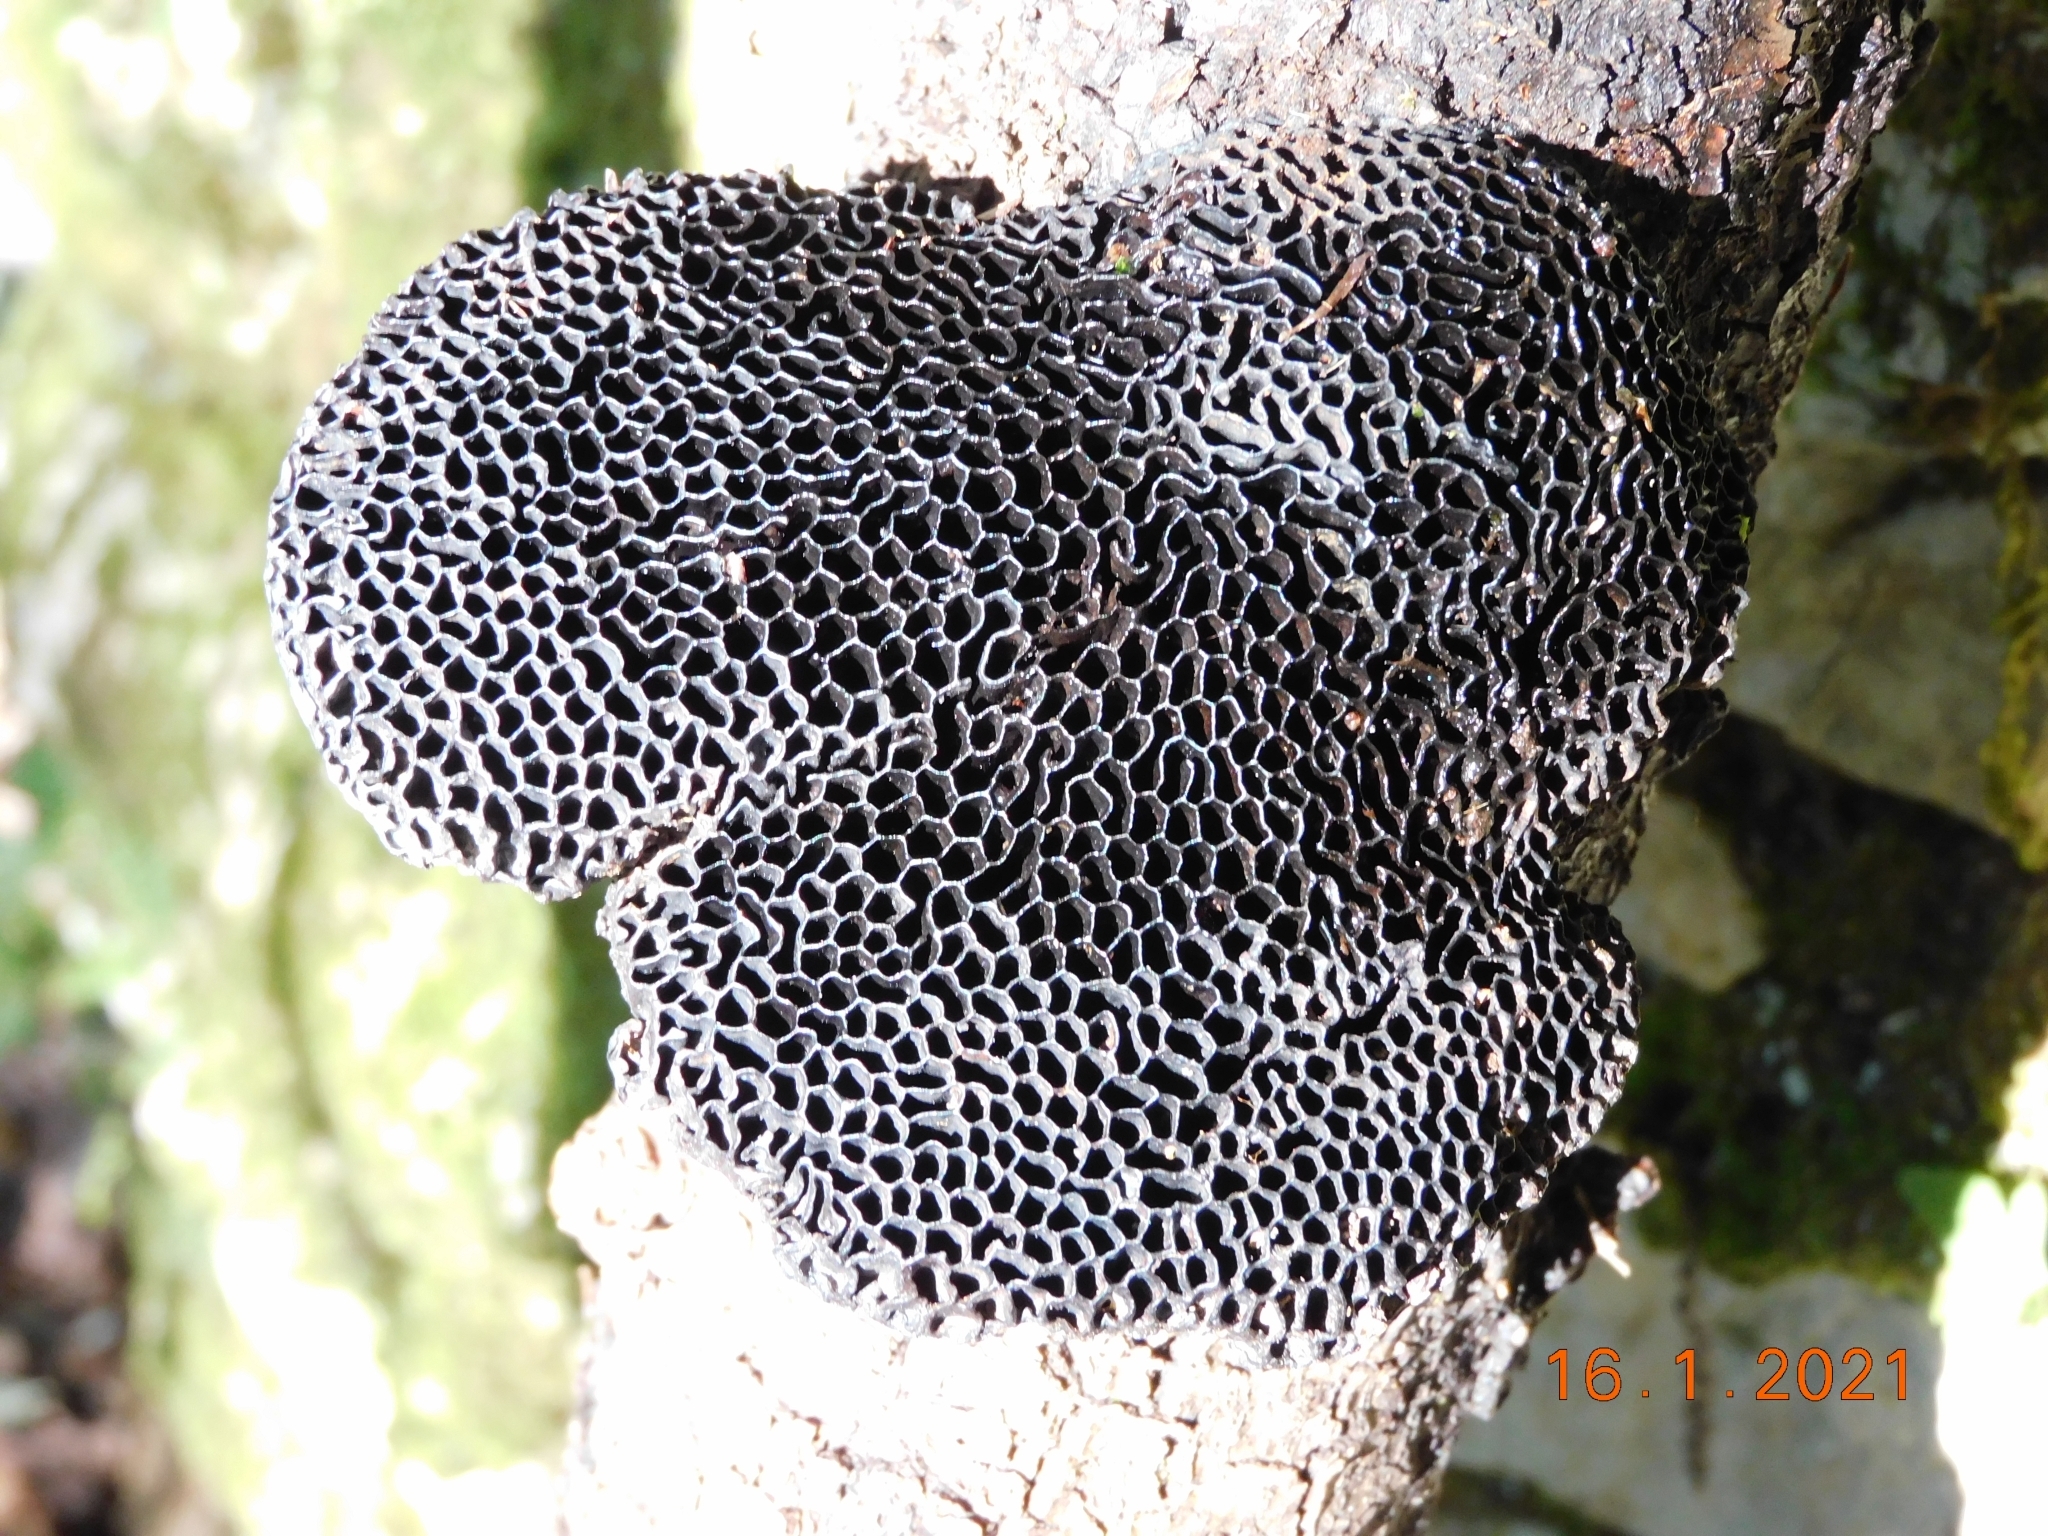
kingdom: Fungi
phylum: Basidiomycota
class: Agaricomycetes
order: Polyporales
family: Polyporaceae
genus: Daedaleopsis
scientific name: Daedaleopsis nitida
